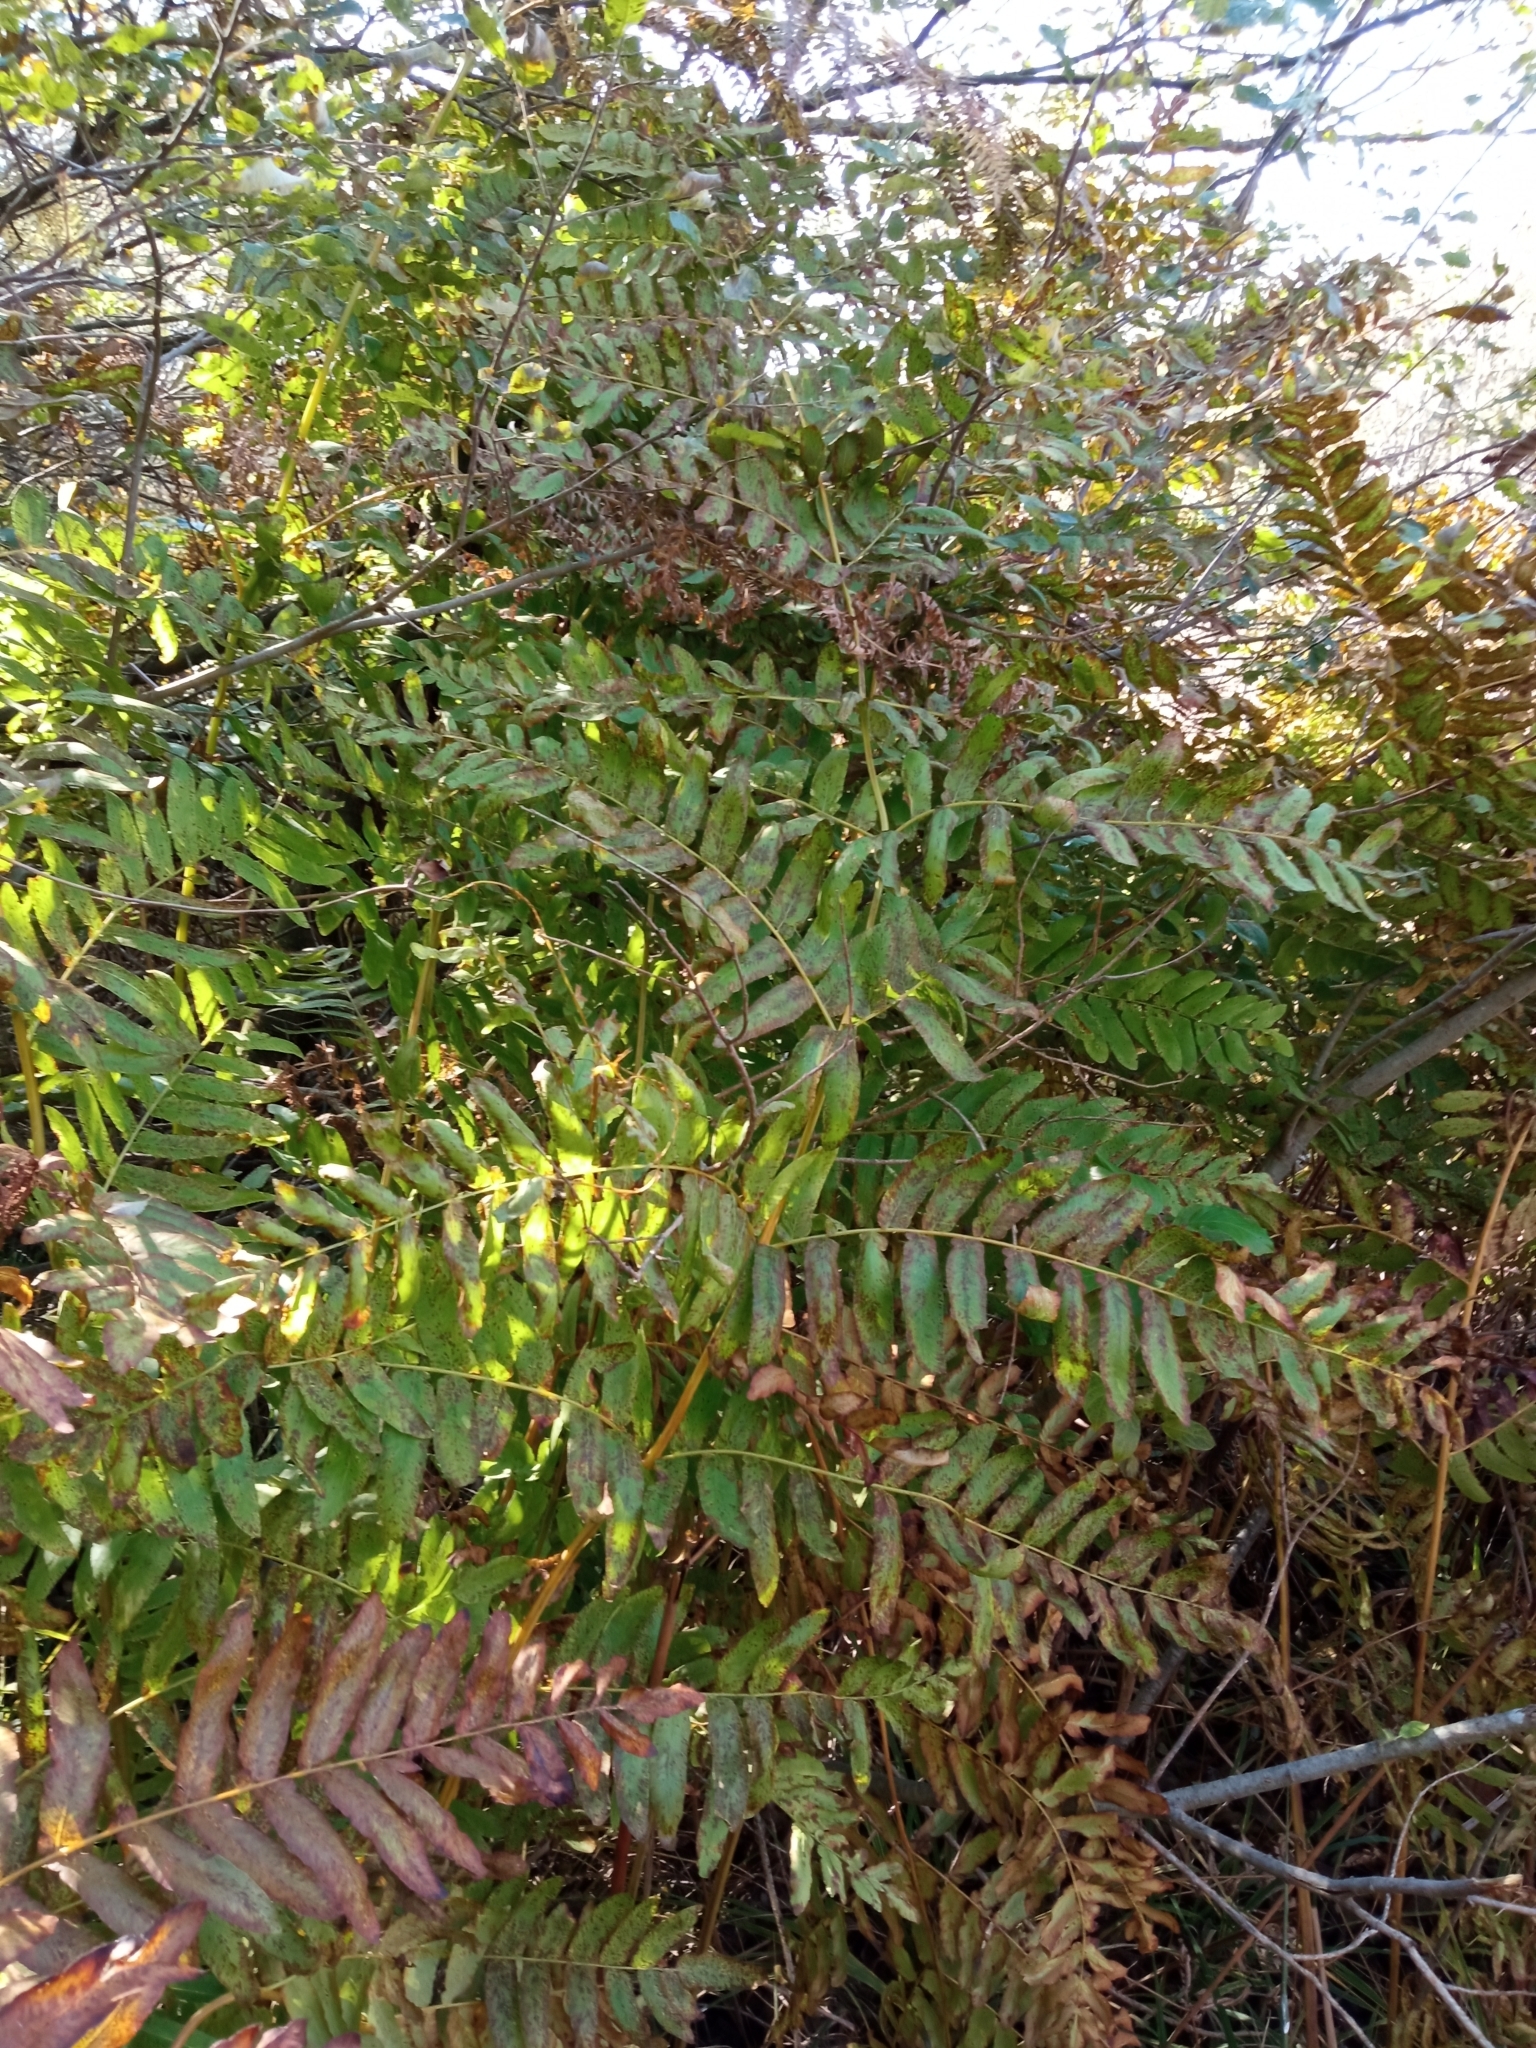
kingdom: Plantae
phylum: Tracheophyta
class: Polypodiopsida
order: Osmundales
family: Osmundaceae
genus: Osmunda
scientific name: Osmunda regalis
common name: Royal fern
